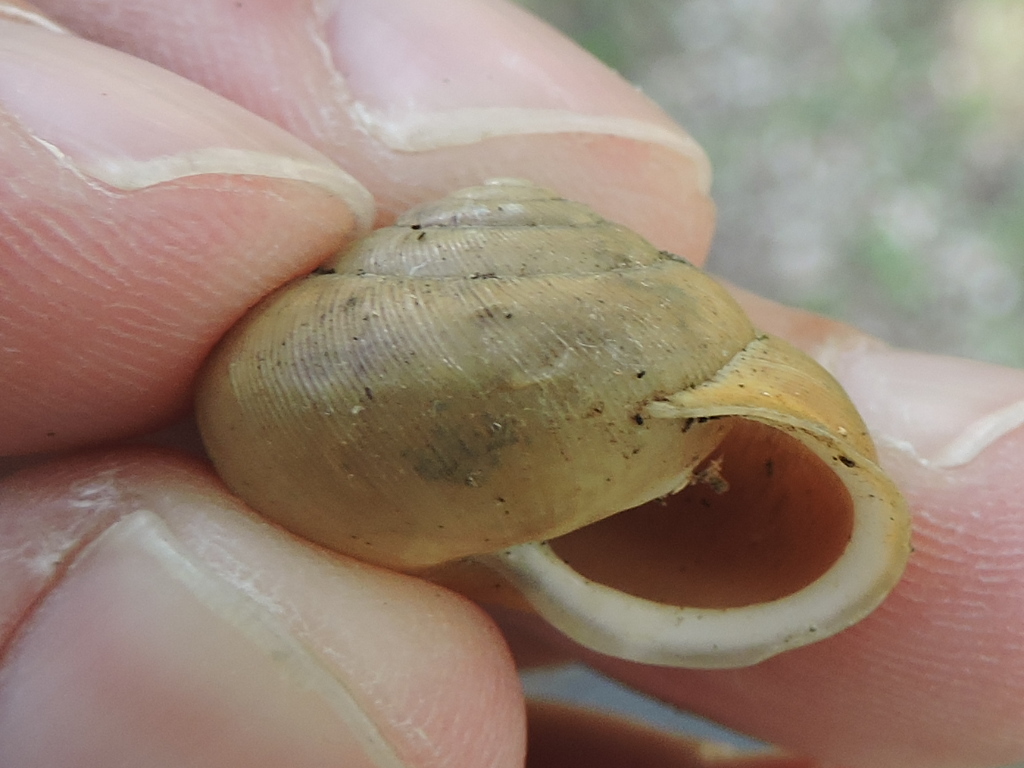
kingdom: Animalia
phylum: Mollusca
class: Gastropoda
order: Stylommatophora
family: Polygyridae
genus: Patera
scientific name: Patera roemeri
